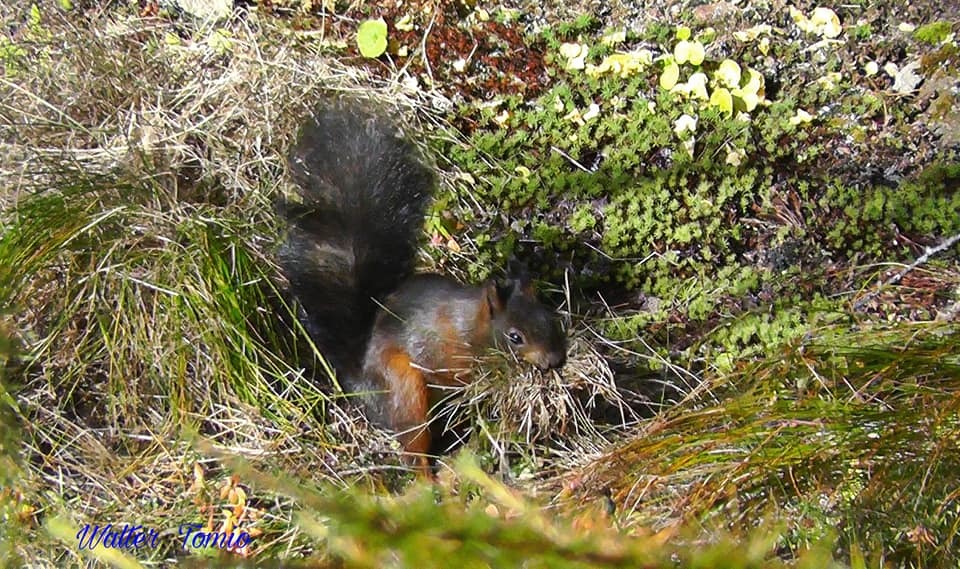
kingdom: Animalia
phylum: Chordata
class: Mammalia
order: Rodentia
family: Sciuridae
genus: Sciurus
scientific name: Sciurus vulgaris
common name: Eurasian red squirrel
